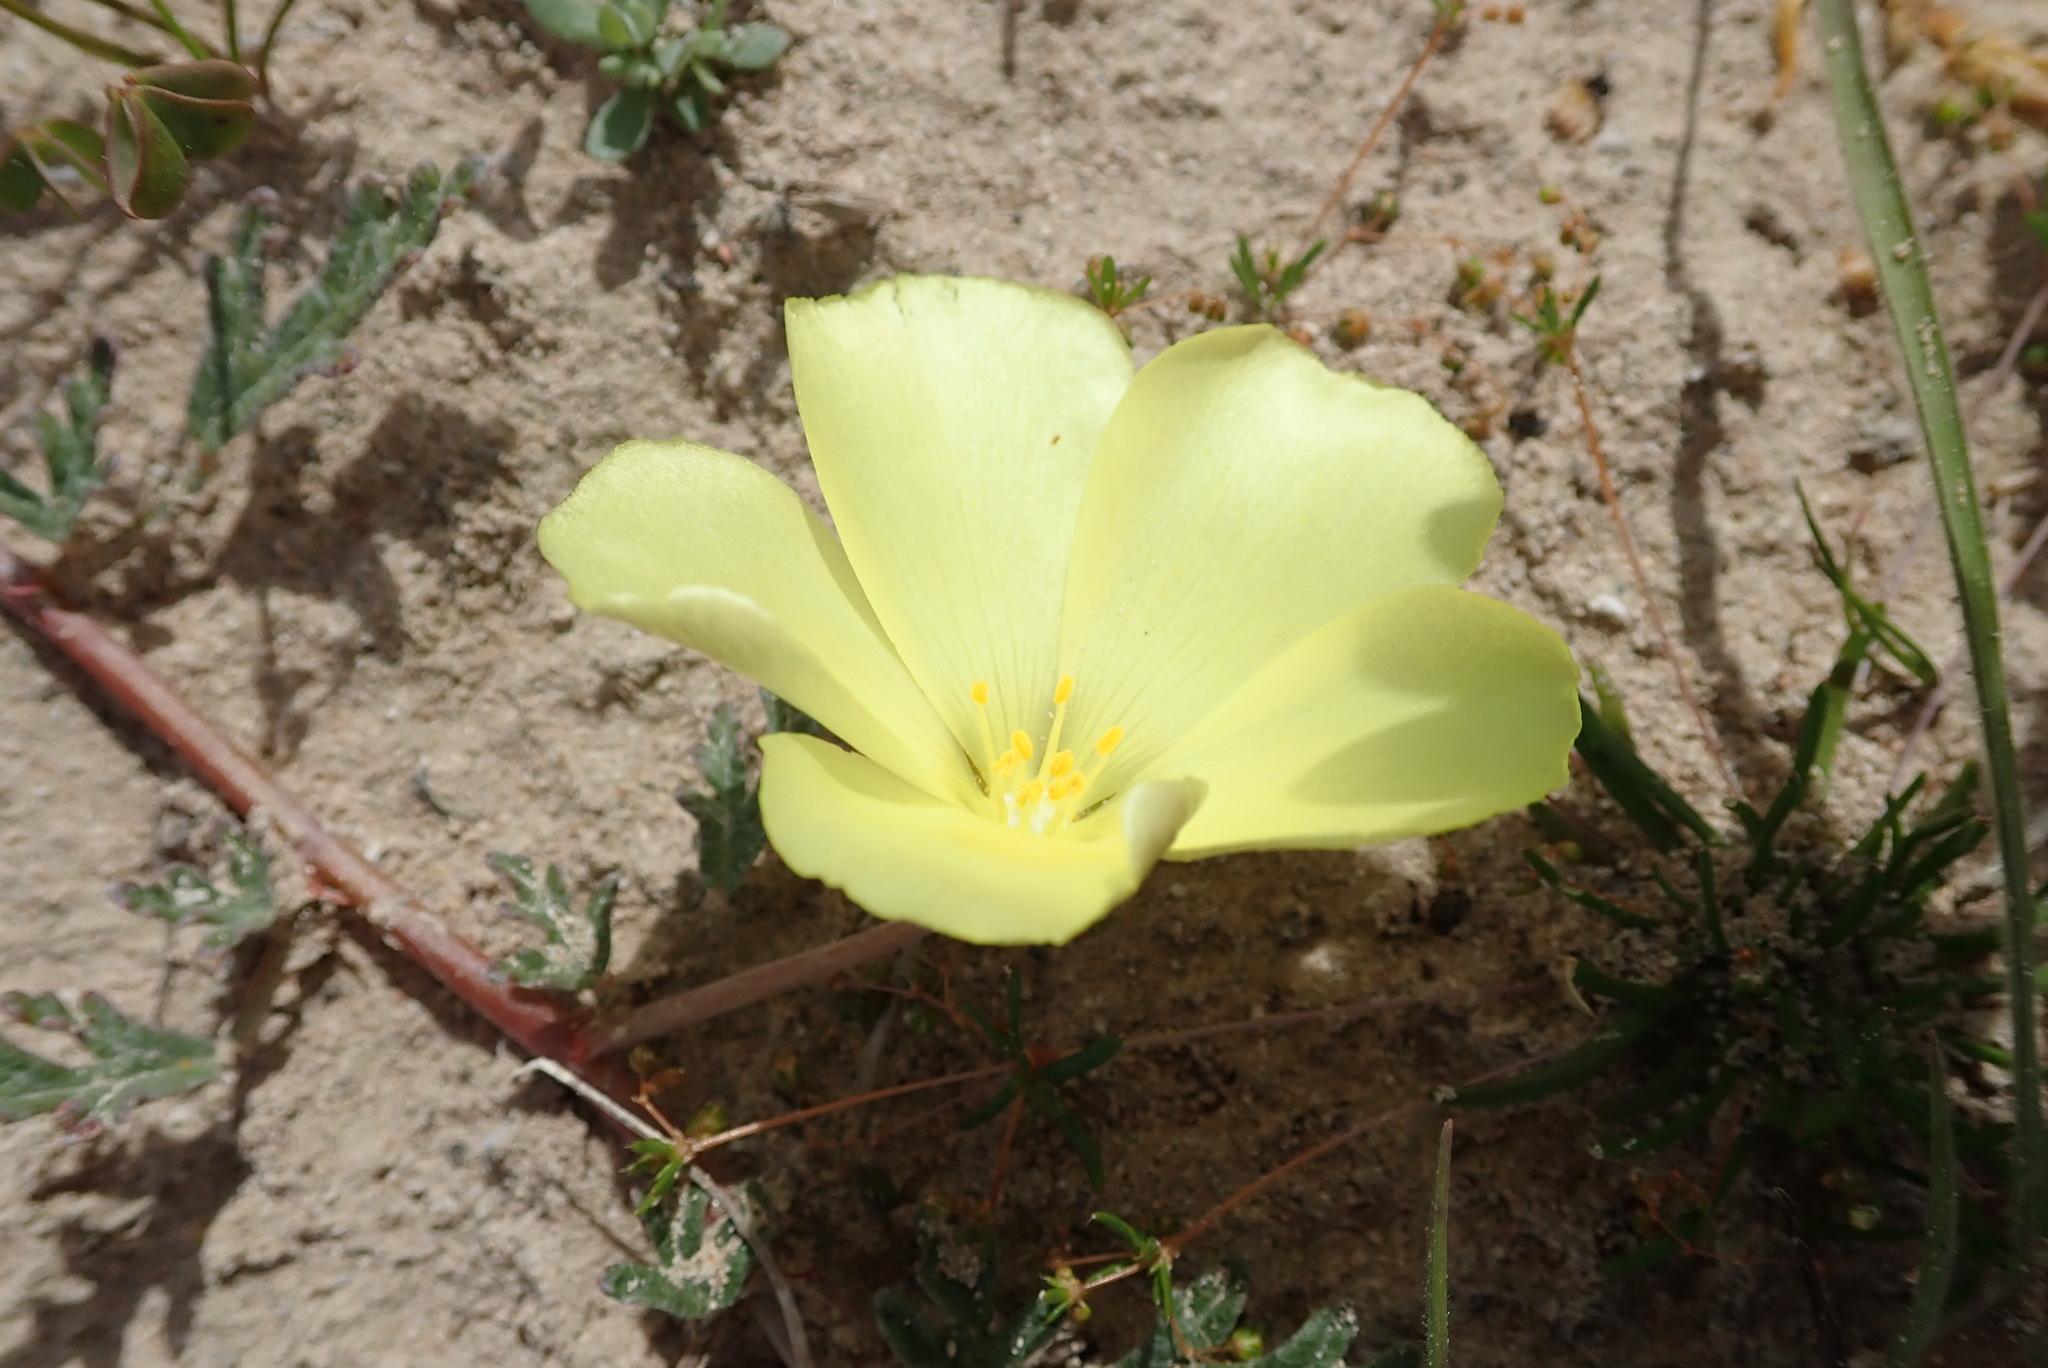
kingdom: Plantae
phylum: Tracheophyta
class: Magnoliopsida
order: Malvales
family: Neuradaceae
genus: Grielum
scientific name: Grielum humifusum
